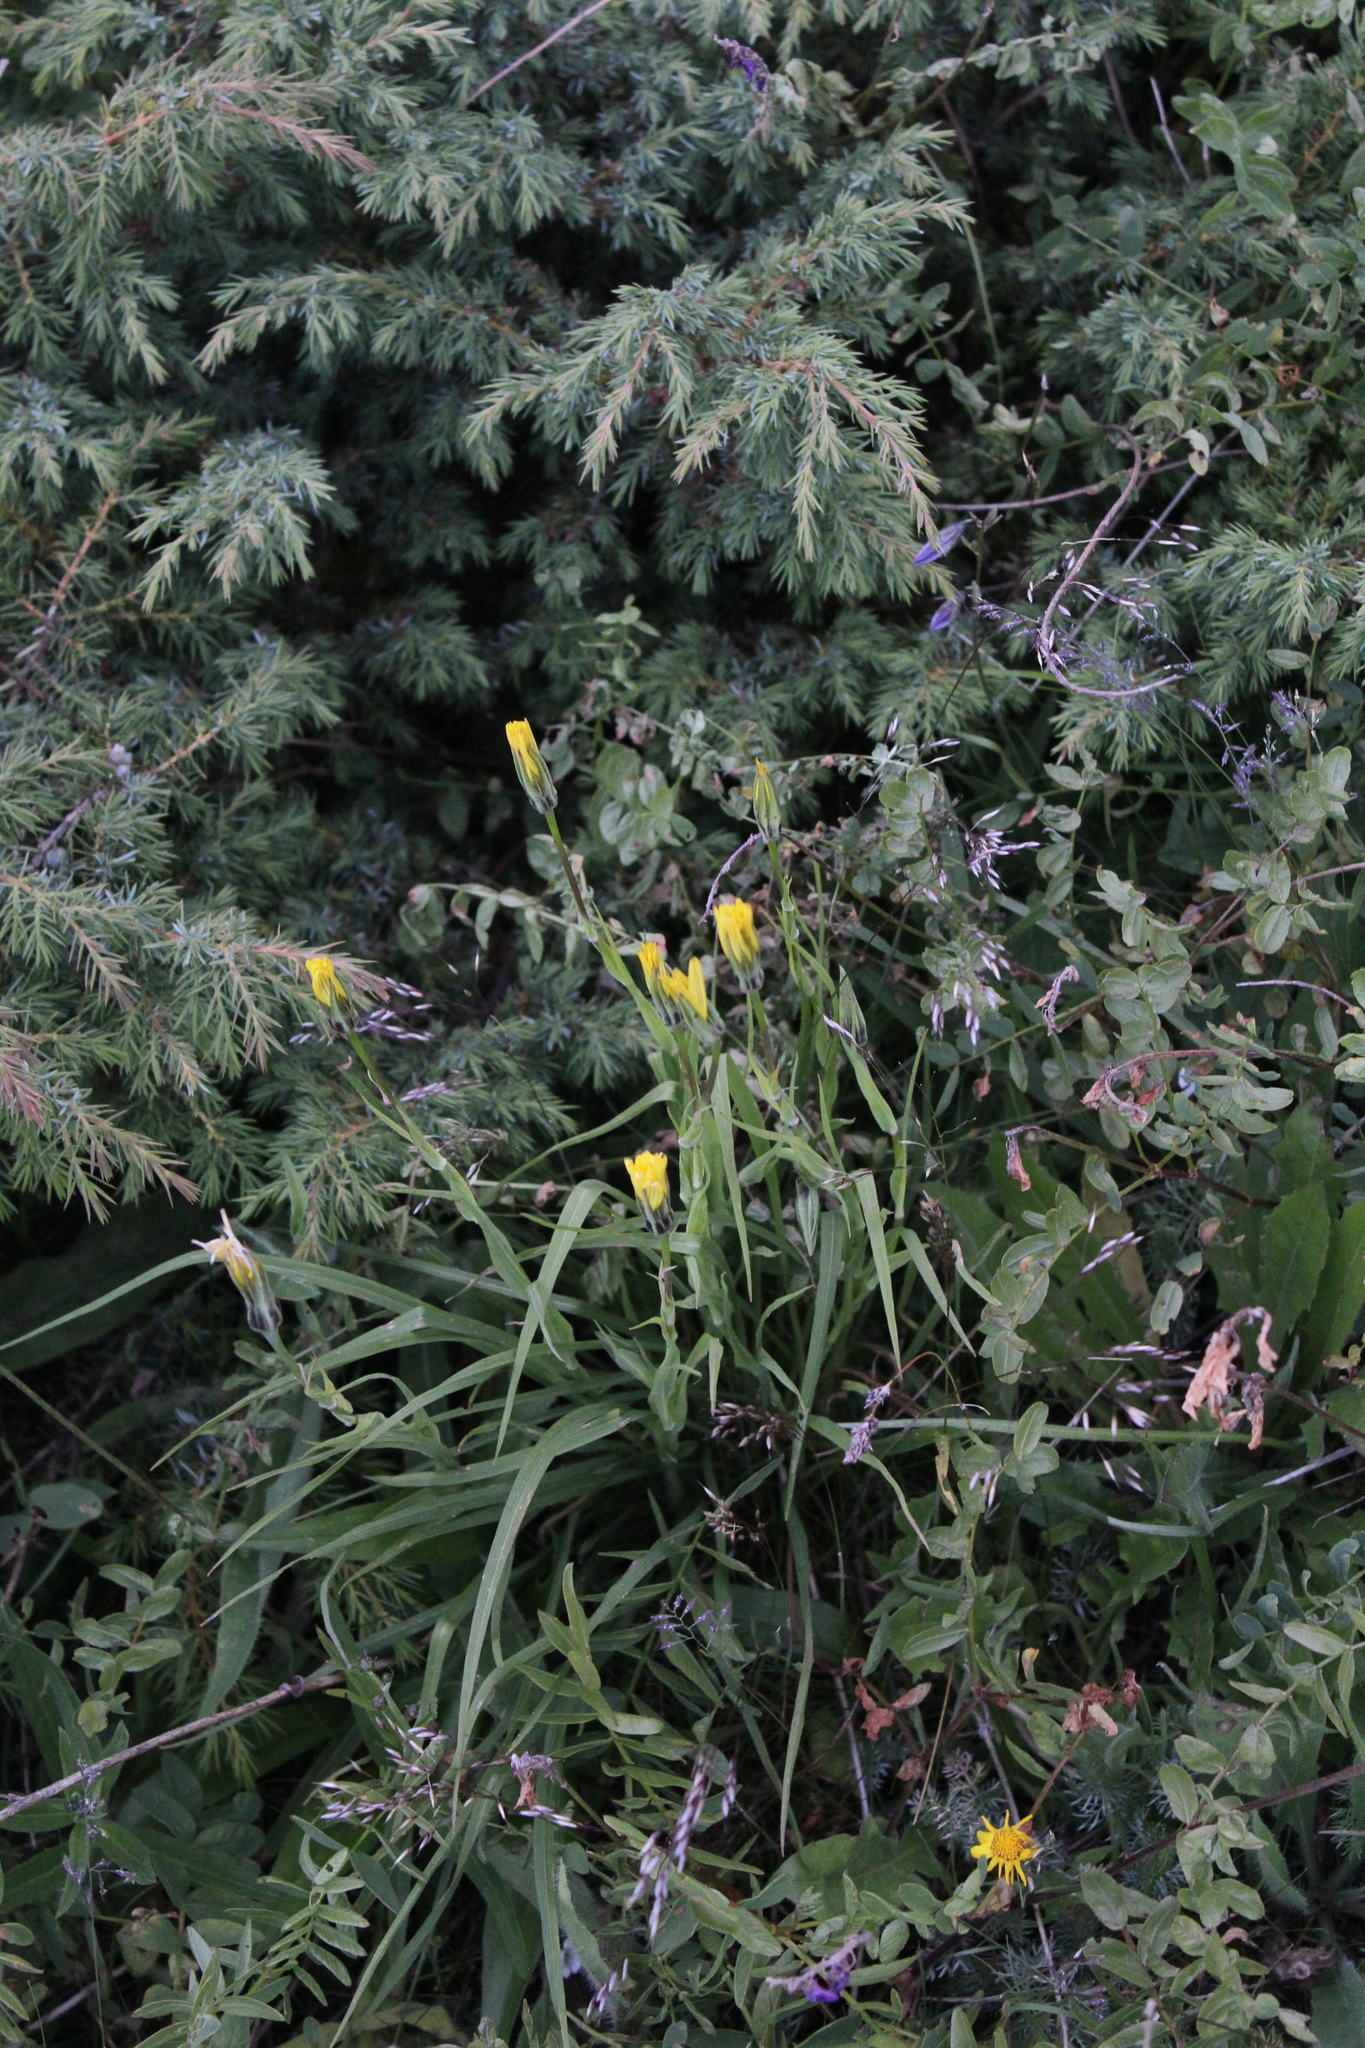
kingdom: Plantae
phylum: Tracheophyta
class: Magnoliopsida
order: Asterales
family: Asteraceae
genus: Tragopogon
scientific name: Tragopogon reticulatus
